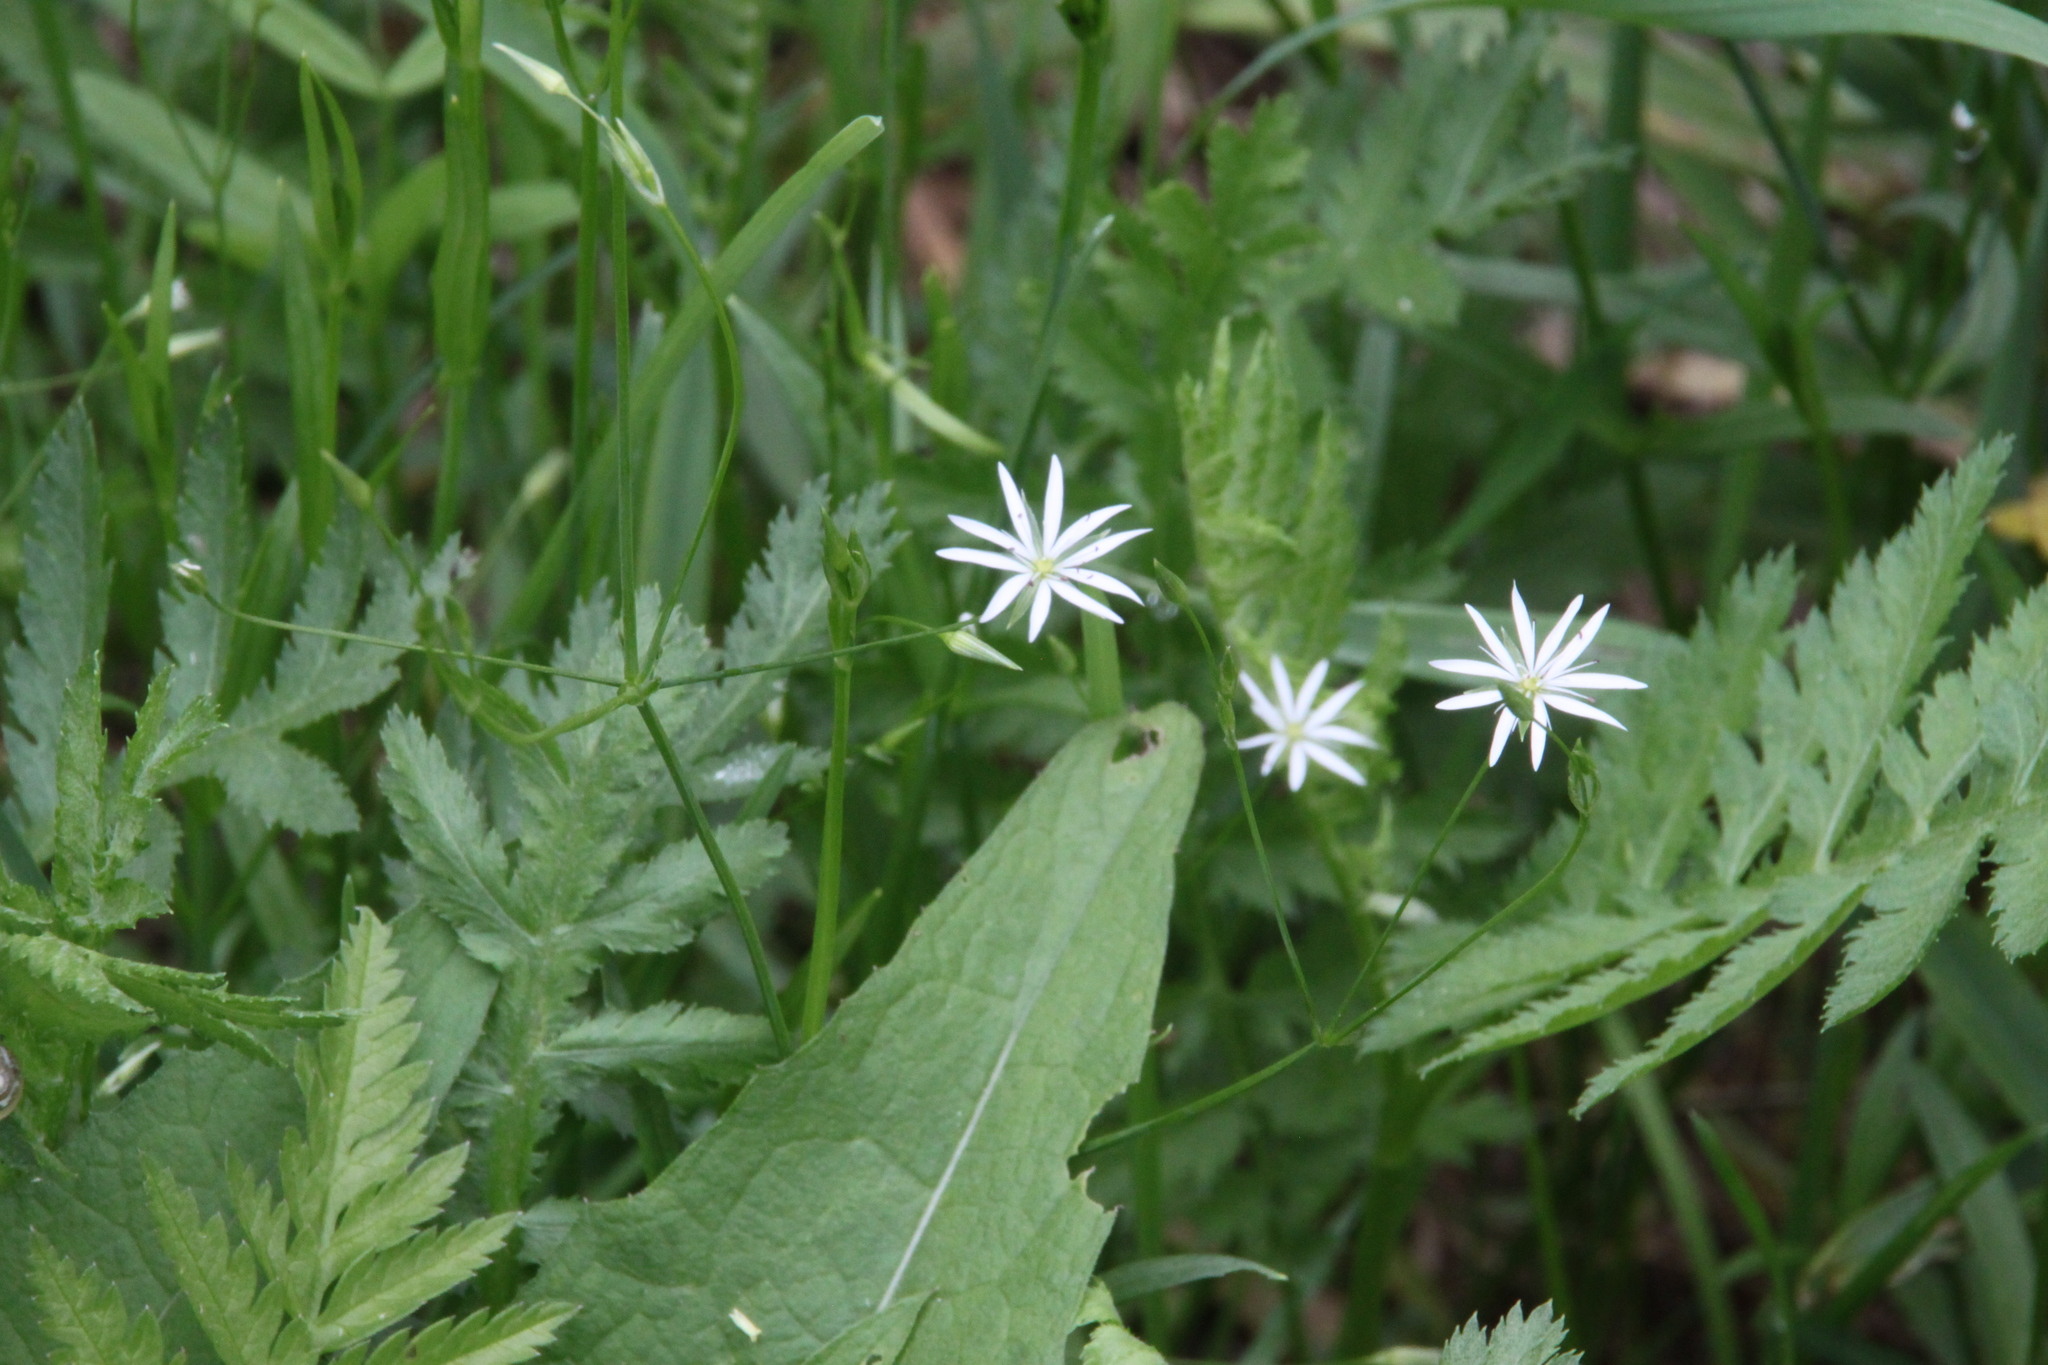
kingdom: Plantae
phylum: Tracheophyta
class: Magnoliopsida
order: Caryophyllales
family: Caryophyllaceae
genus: Stellaria
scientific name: Stellaria graminea
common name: Grass-like starwort
